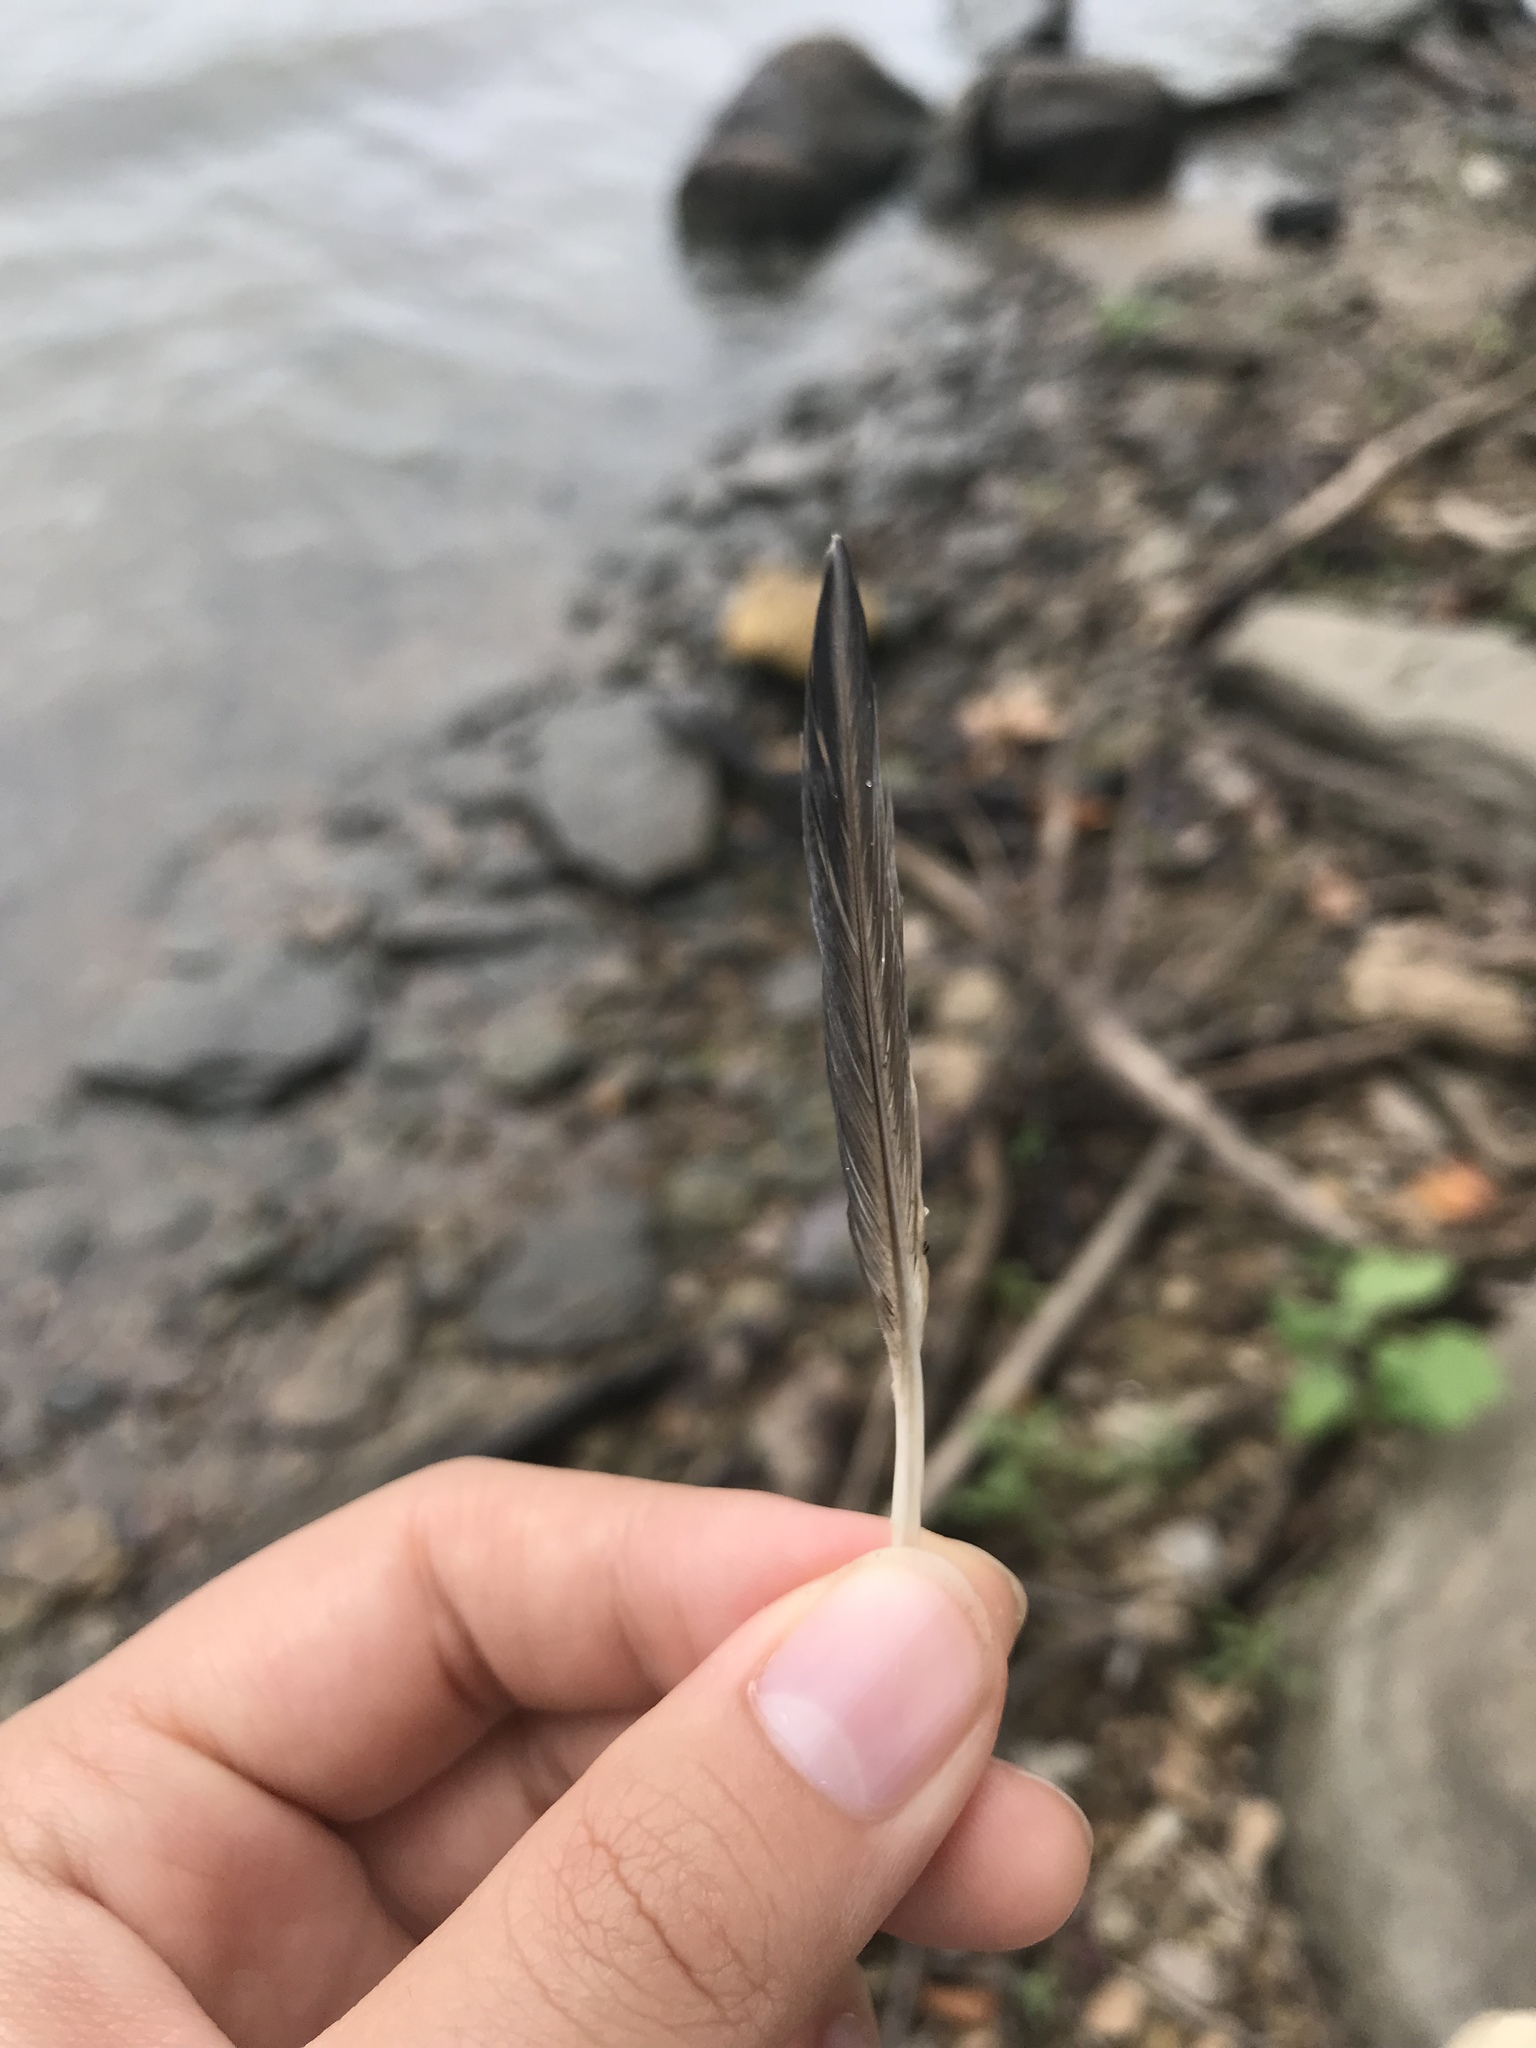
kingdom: Animalia
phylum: Chordata
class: Aves
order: Columbiformes
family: Columbidae
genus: Columba
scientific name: Columba livia
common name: Rock pigeon
